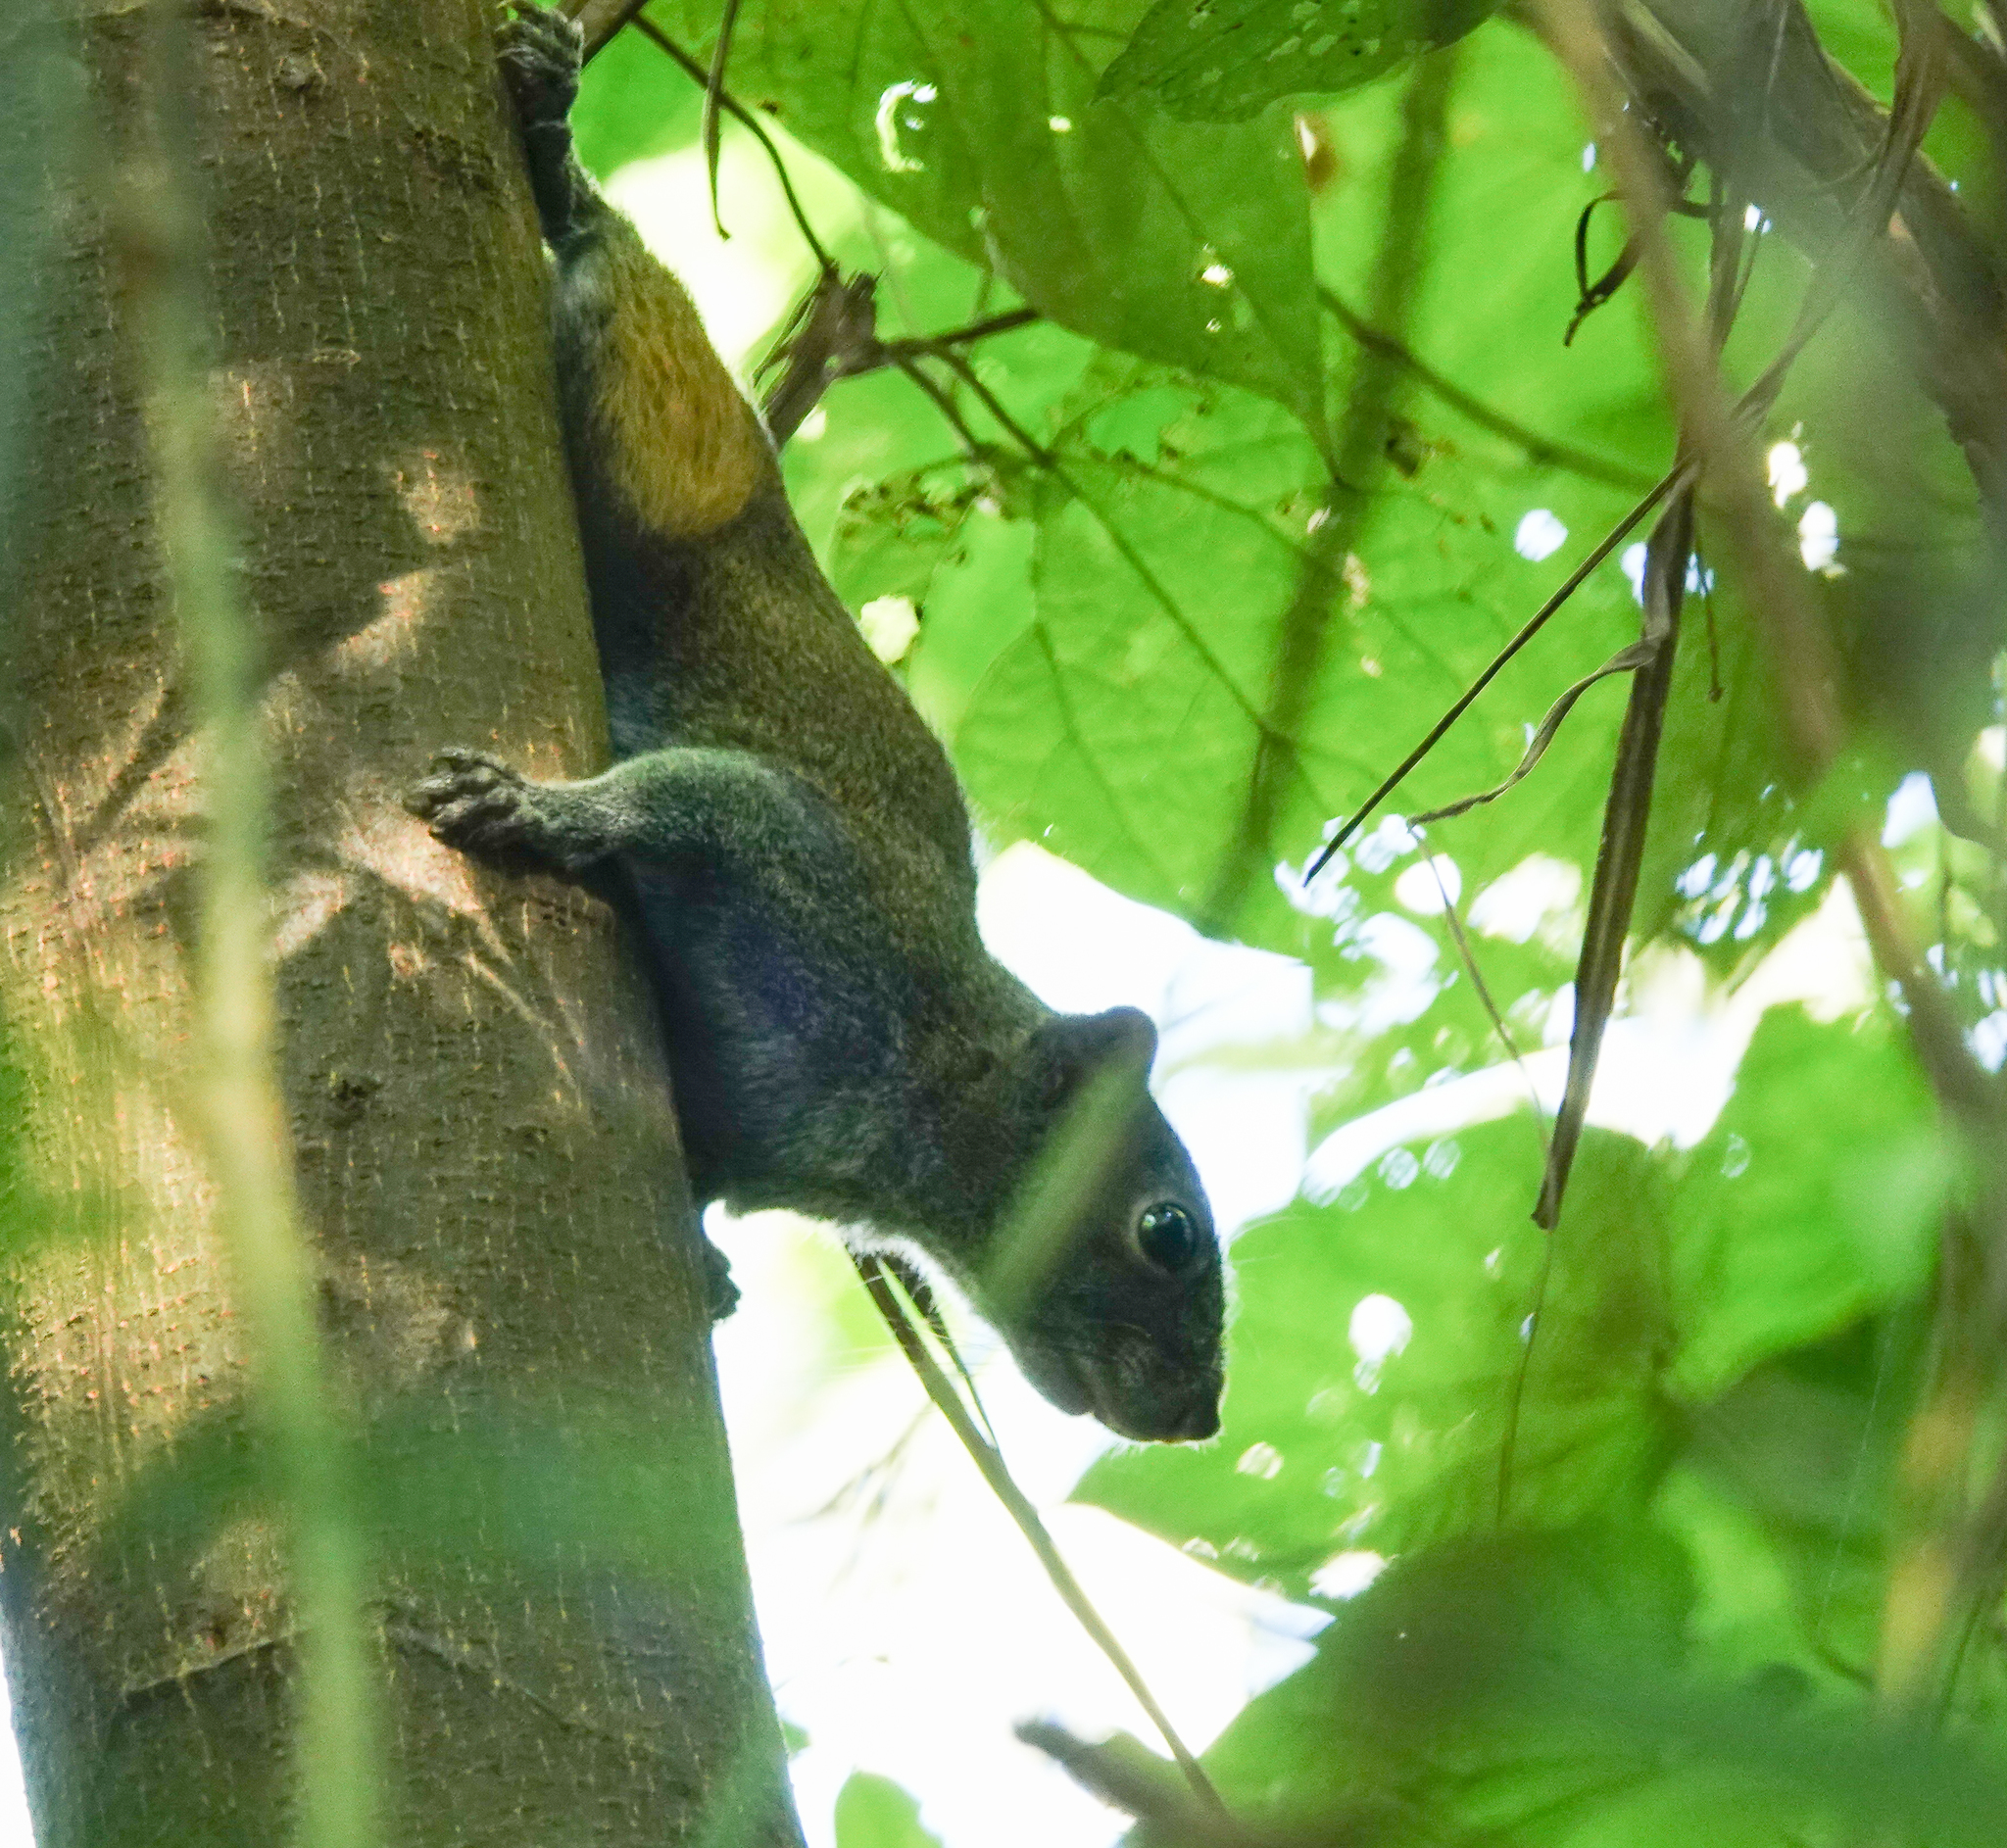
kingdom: Animalia
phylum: Chordata
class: Mammalia
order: Rodentia
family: Sciuridae
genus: Callosciurus
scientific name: Callosciurus pygerythrus
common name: Irrawaddy squirrel
